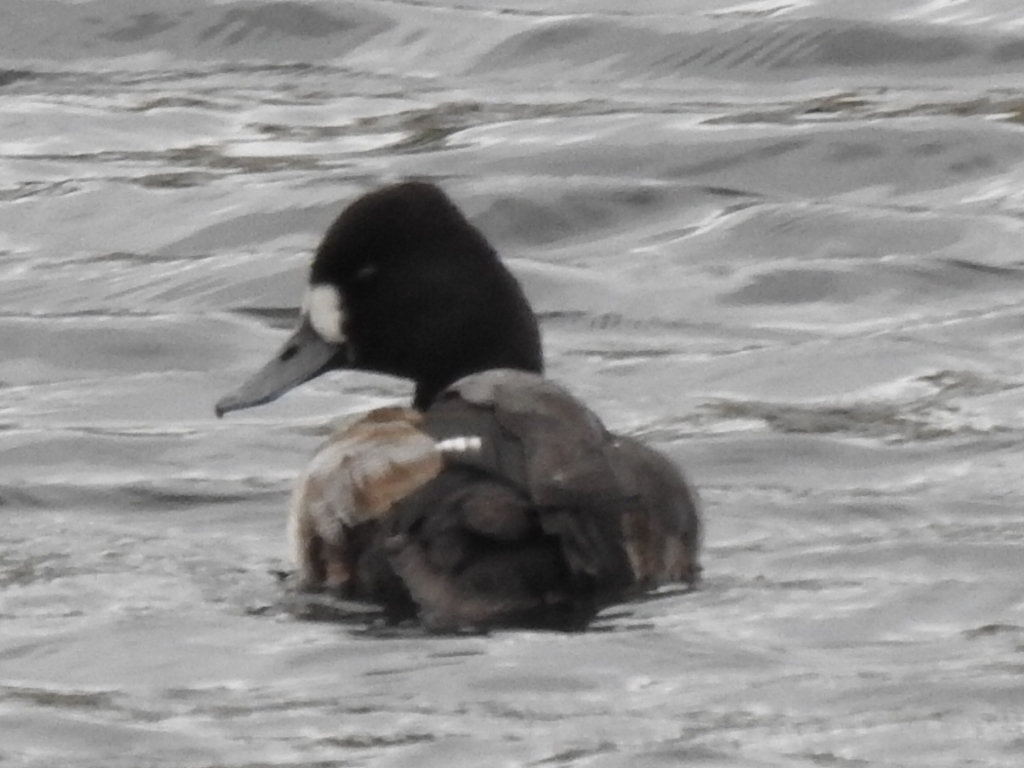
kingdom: Animalia
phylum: Chordata
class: Aves
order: Anseriformes
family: Anatidae
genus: Aythya
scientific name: Aythya affinis
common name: Lesser scaup
